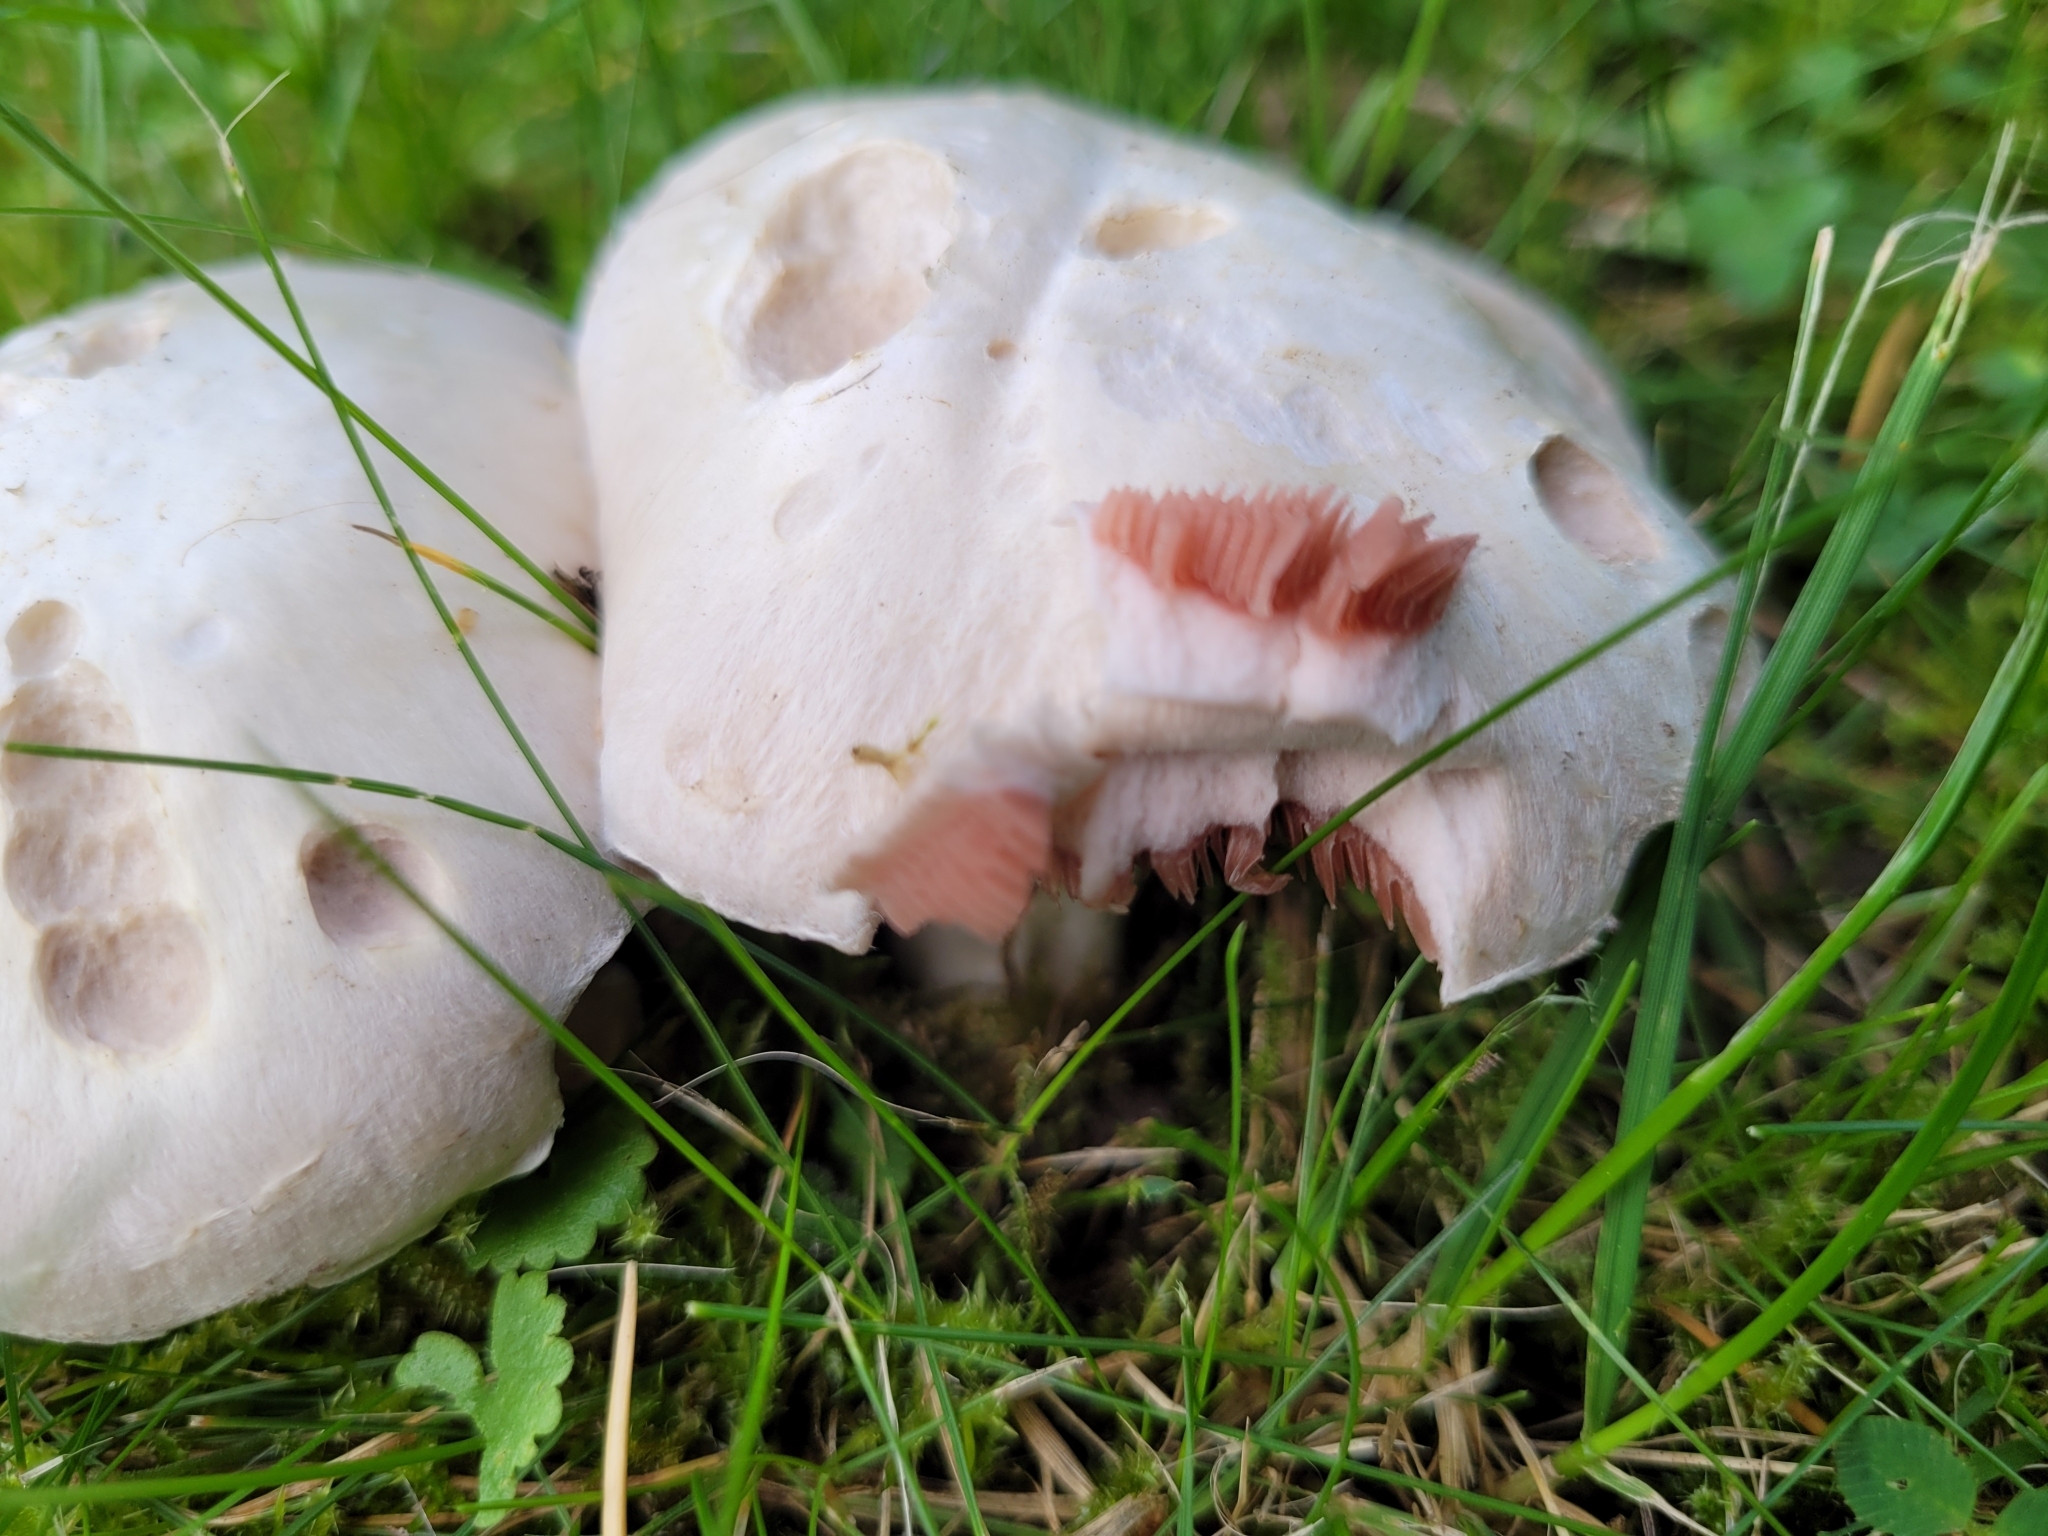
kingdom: Fungi
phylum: Basidiomycota
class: Agaricomycetes
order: Agaricales
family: Agaricaceae
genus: Agaricus
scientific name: Agaricus campestris
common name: Field mushroom
